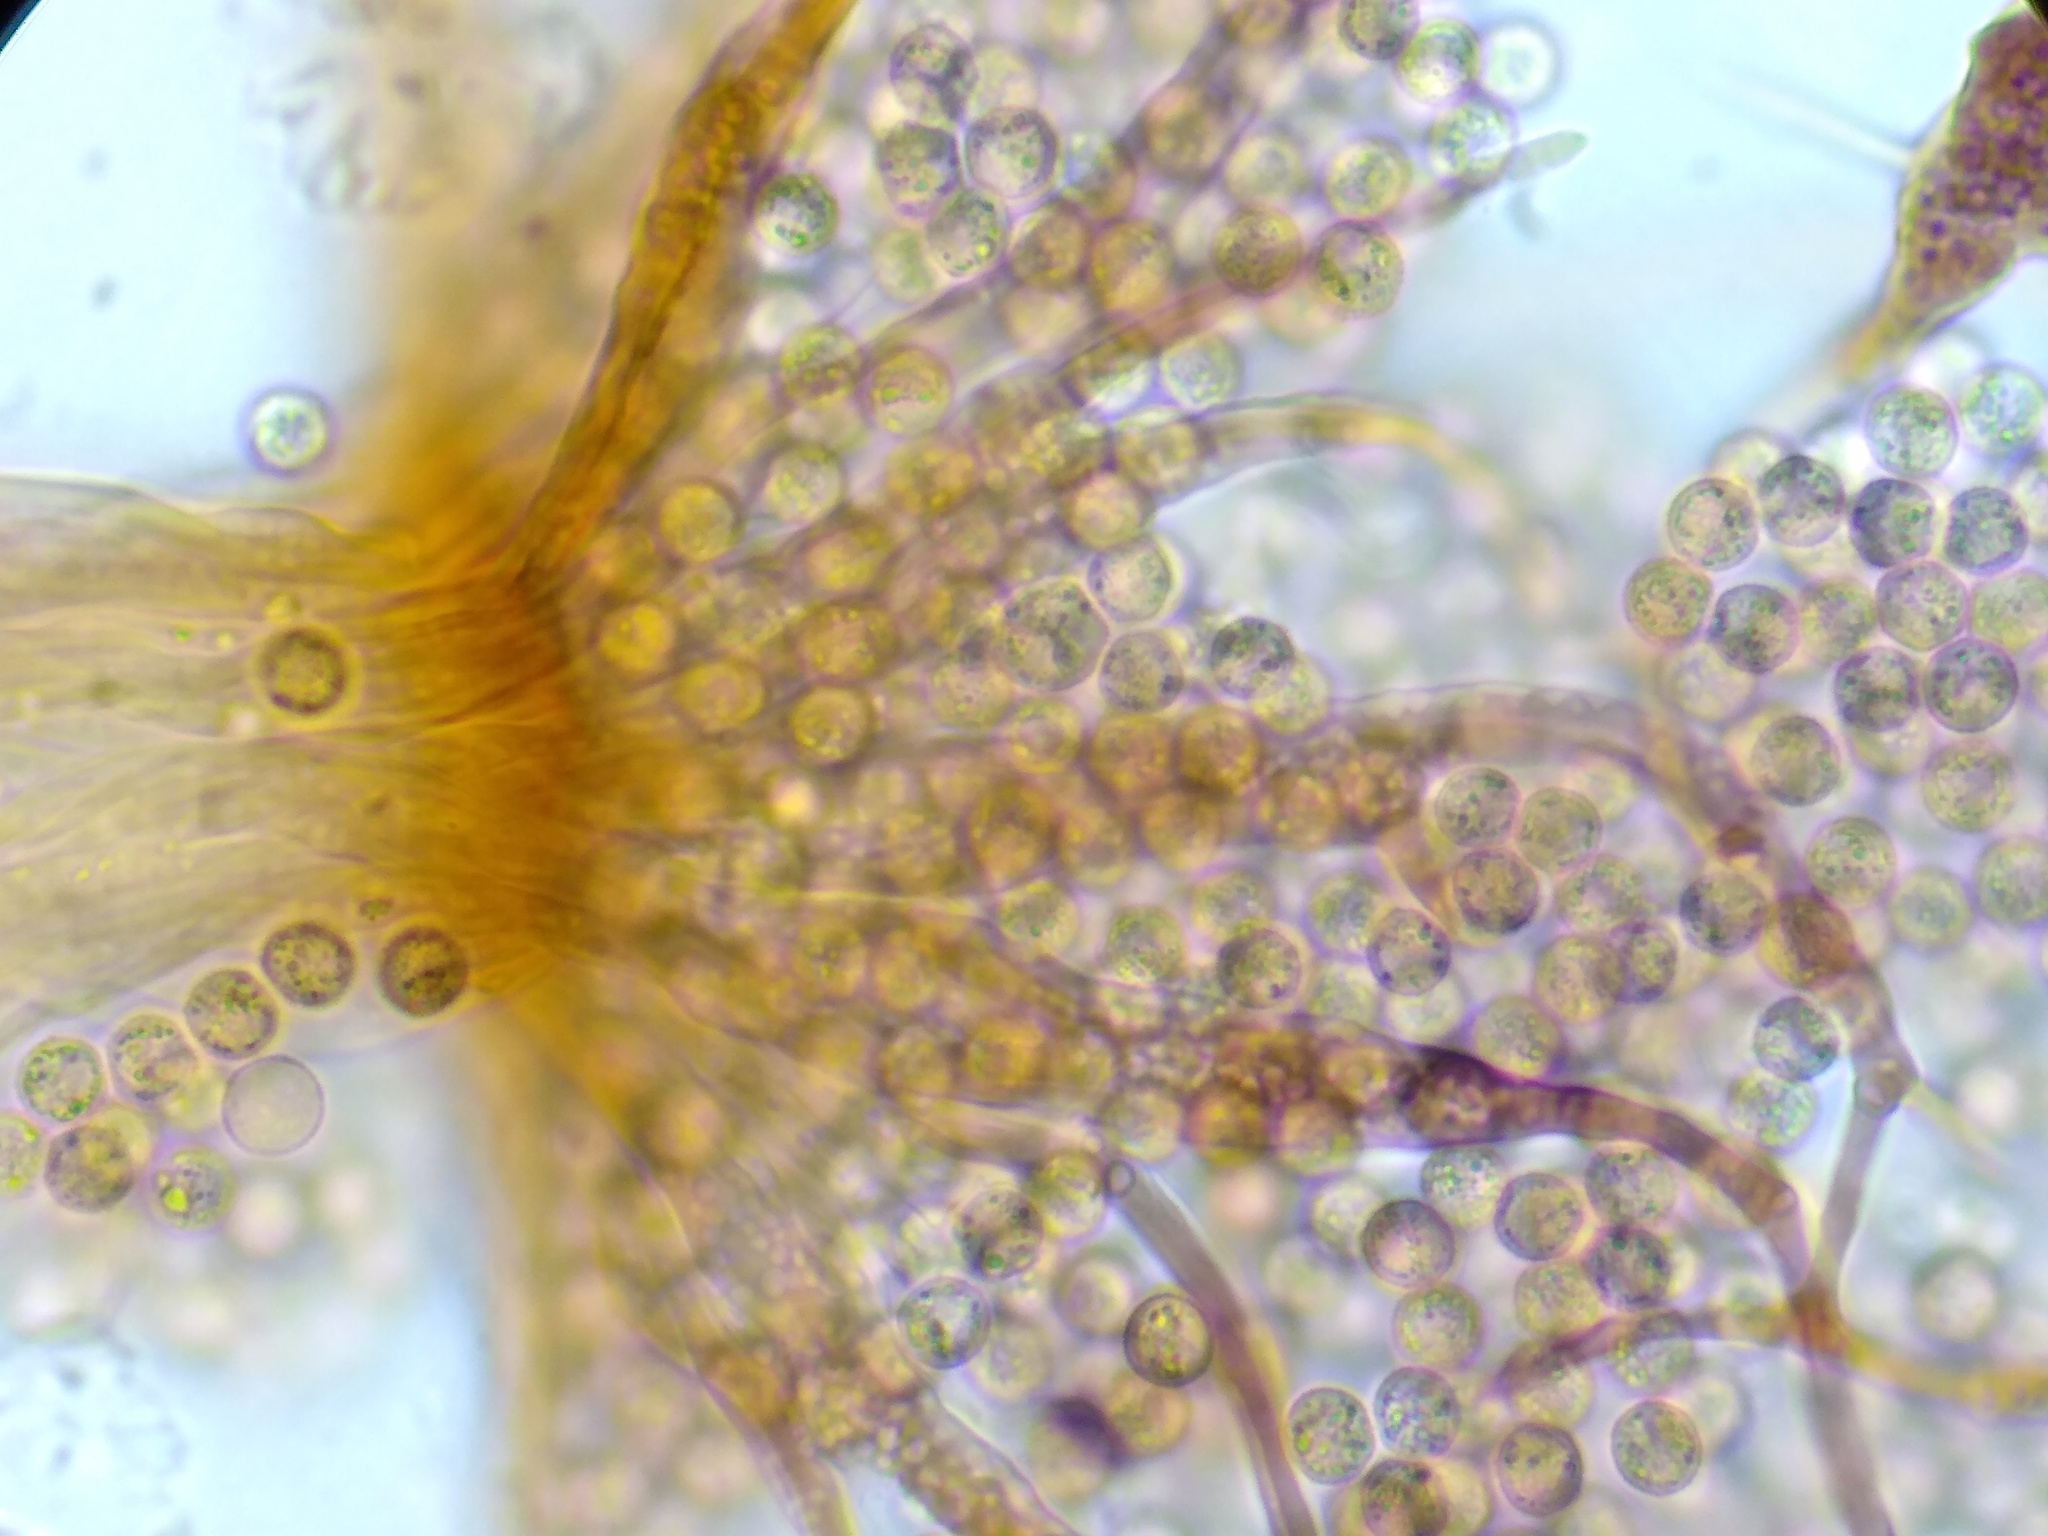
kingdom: Protozoa
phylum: Mycetozoa
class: Myxomycetes
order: Cribrariales
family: Cribrariaceae
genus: Cribraria
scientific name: Cribraria splendens
